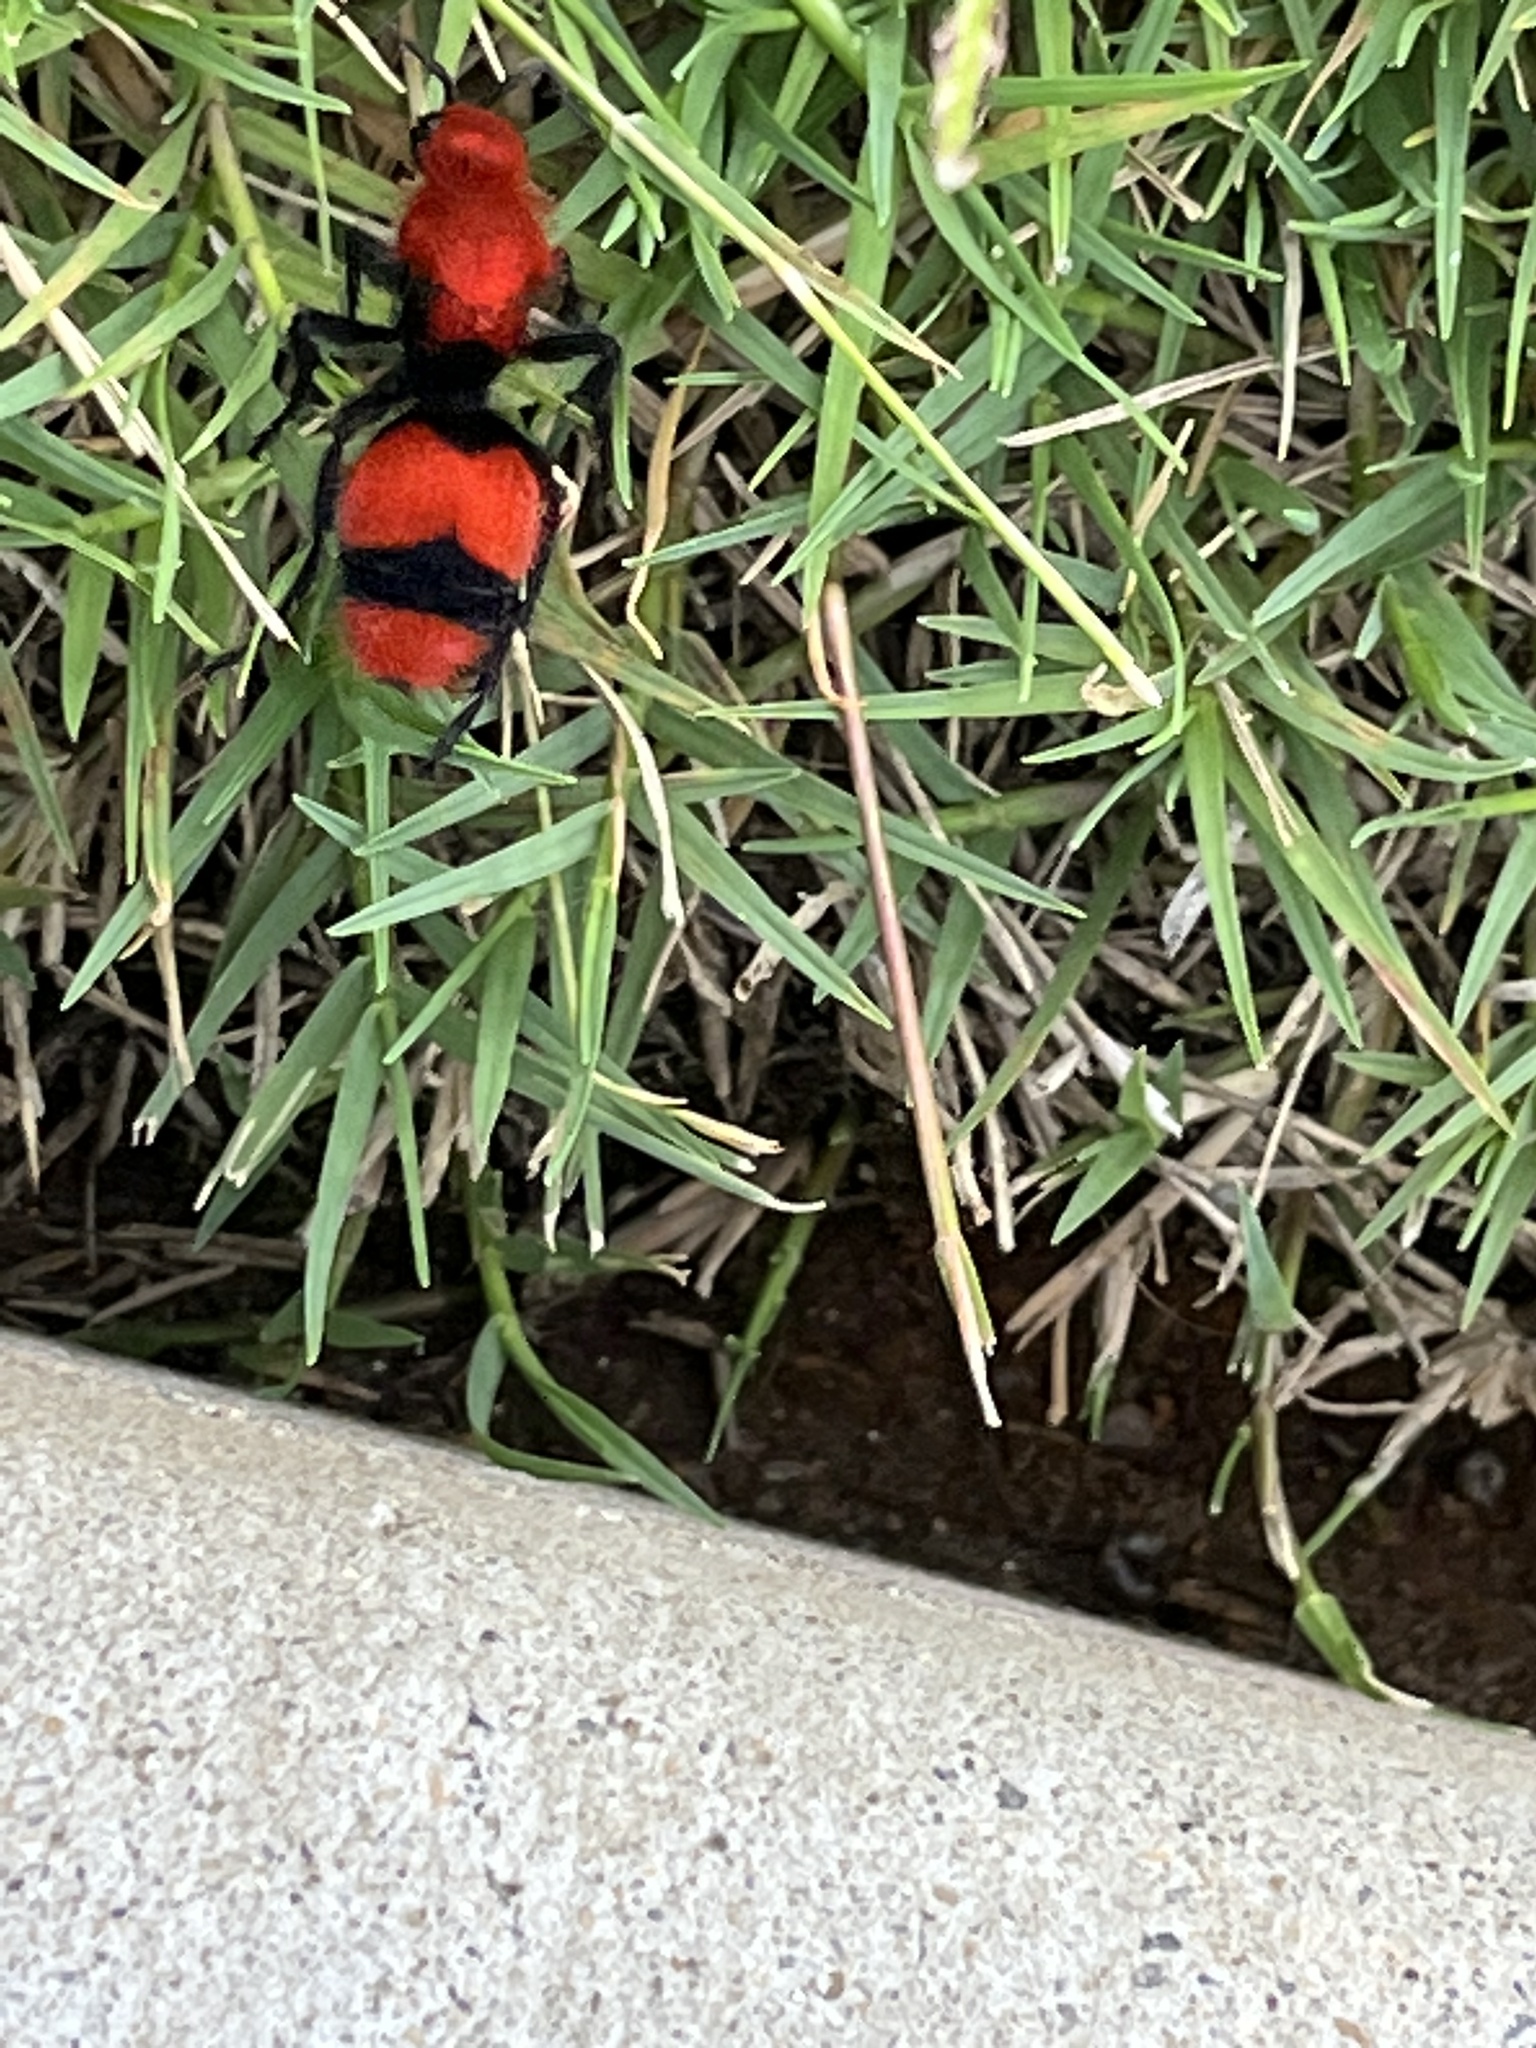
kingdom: Animalia
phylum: Arthropoda
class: Insecta
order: Hymenoptera
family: Mutillidae
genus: Dasymutilla
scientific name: Dasymutilla occidentalis
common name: Common eastern velvet ant
